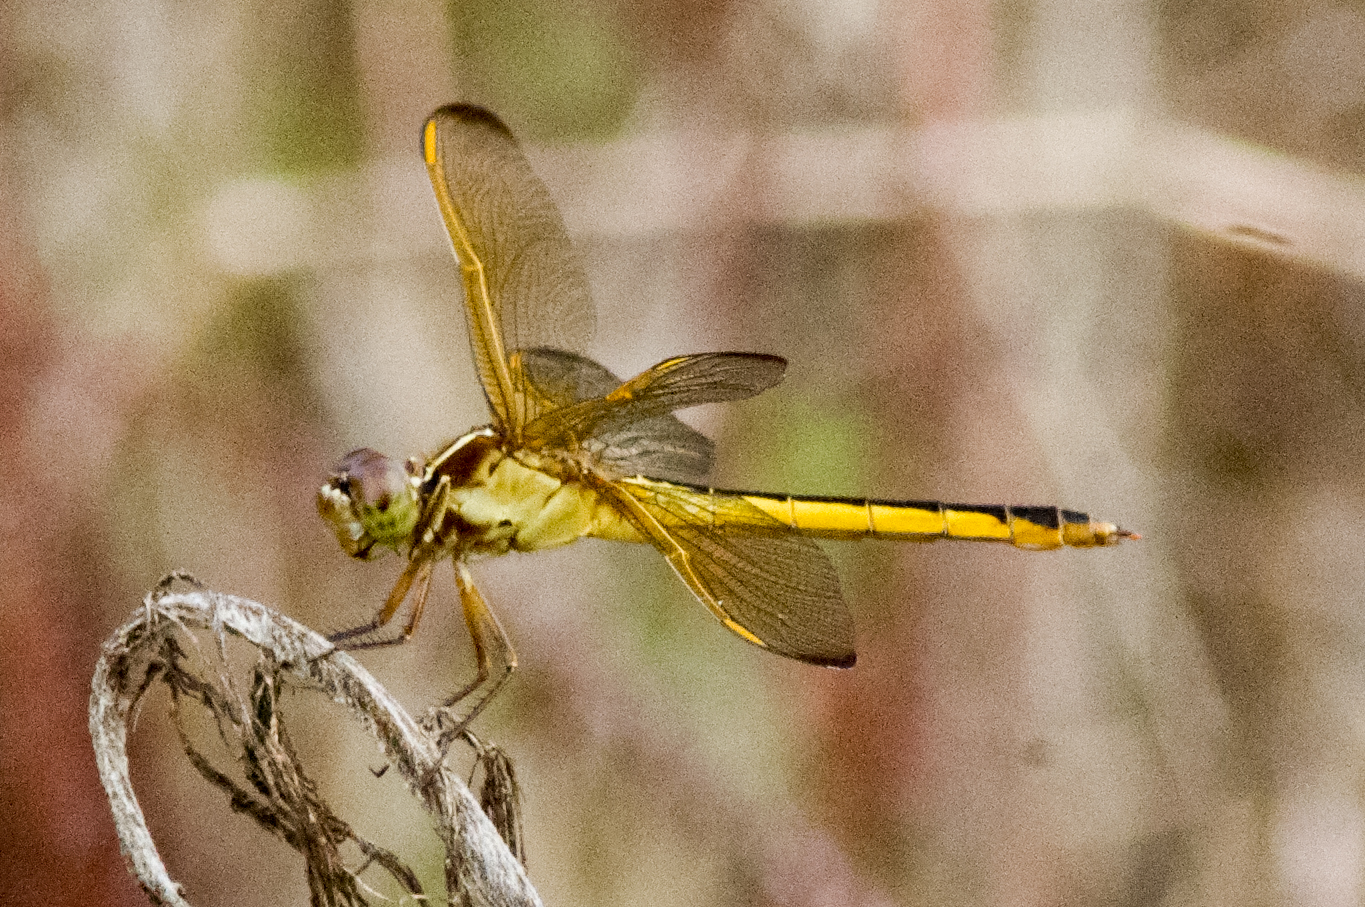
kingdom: Animalia
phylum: Arthropoda
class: Insecta
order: Odonata
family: Libellulidae
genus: Libellula
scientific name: Libellula needhami
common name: Needham's skimmer
